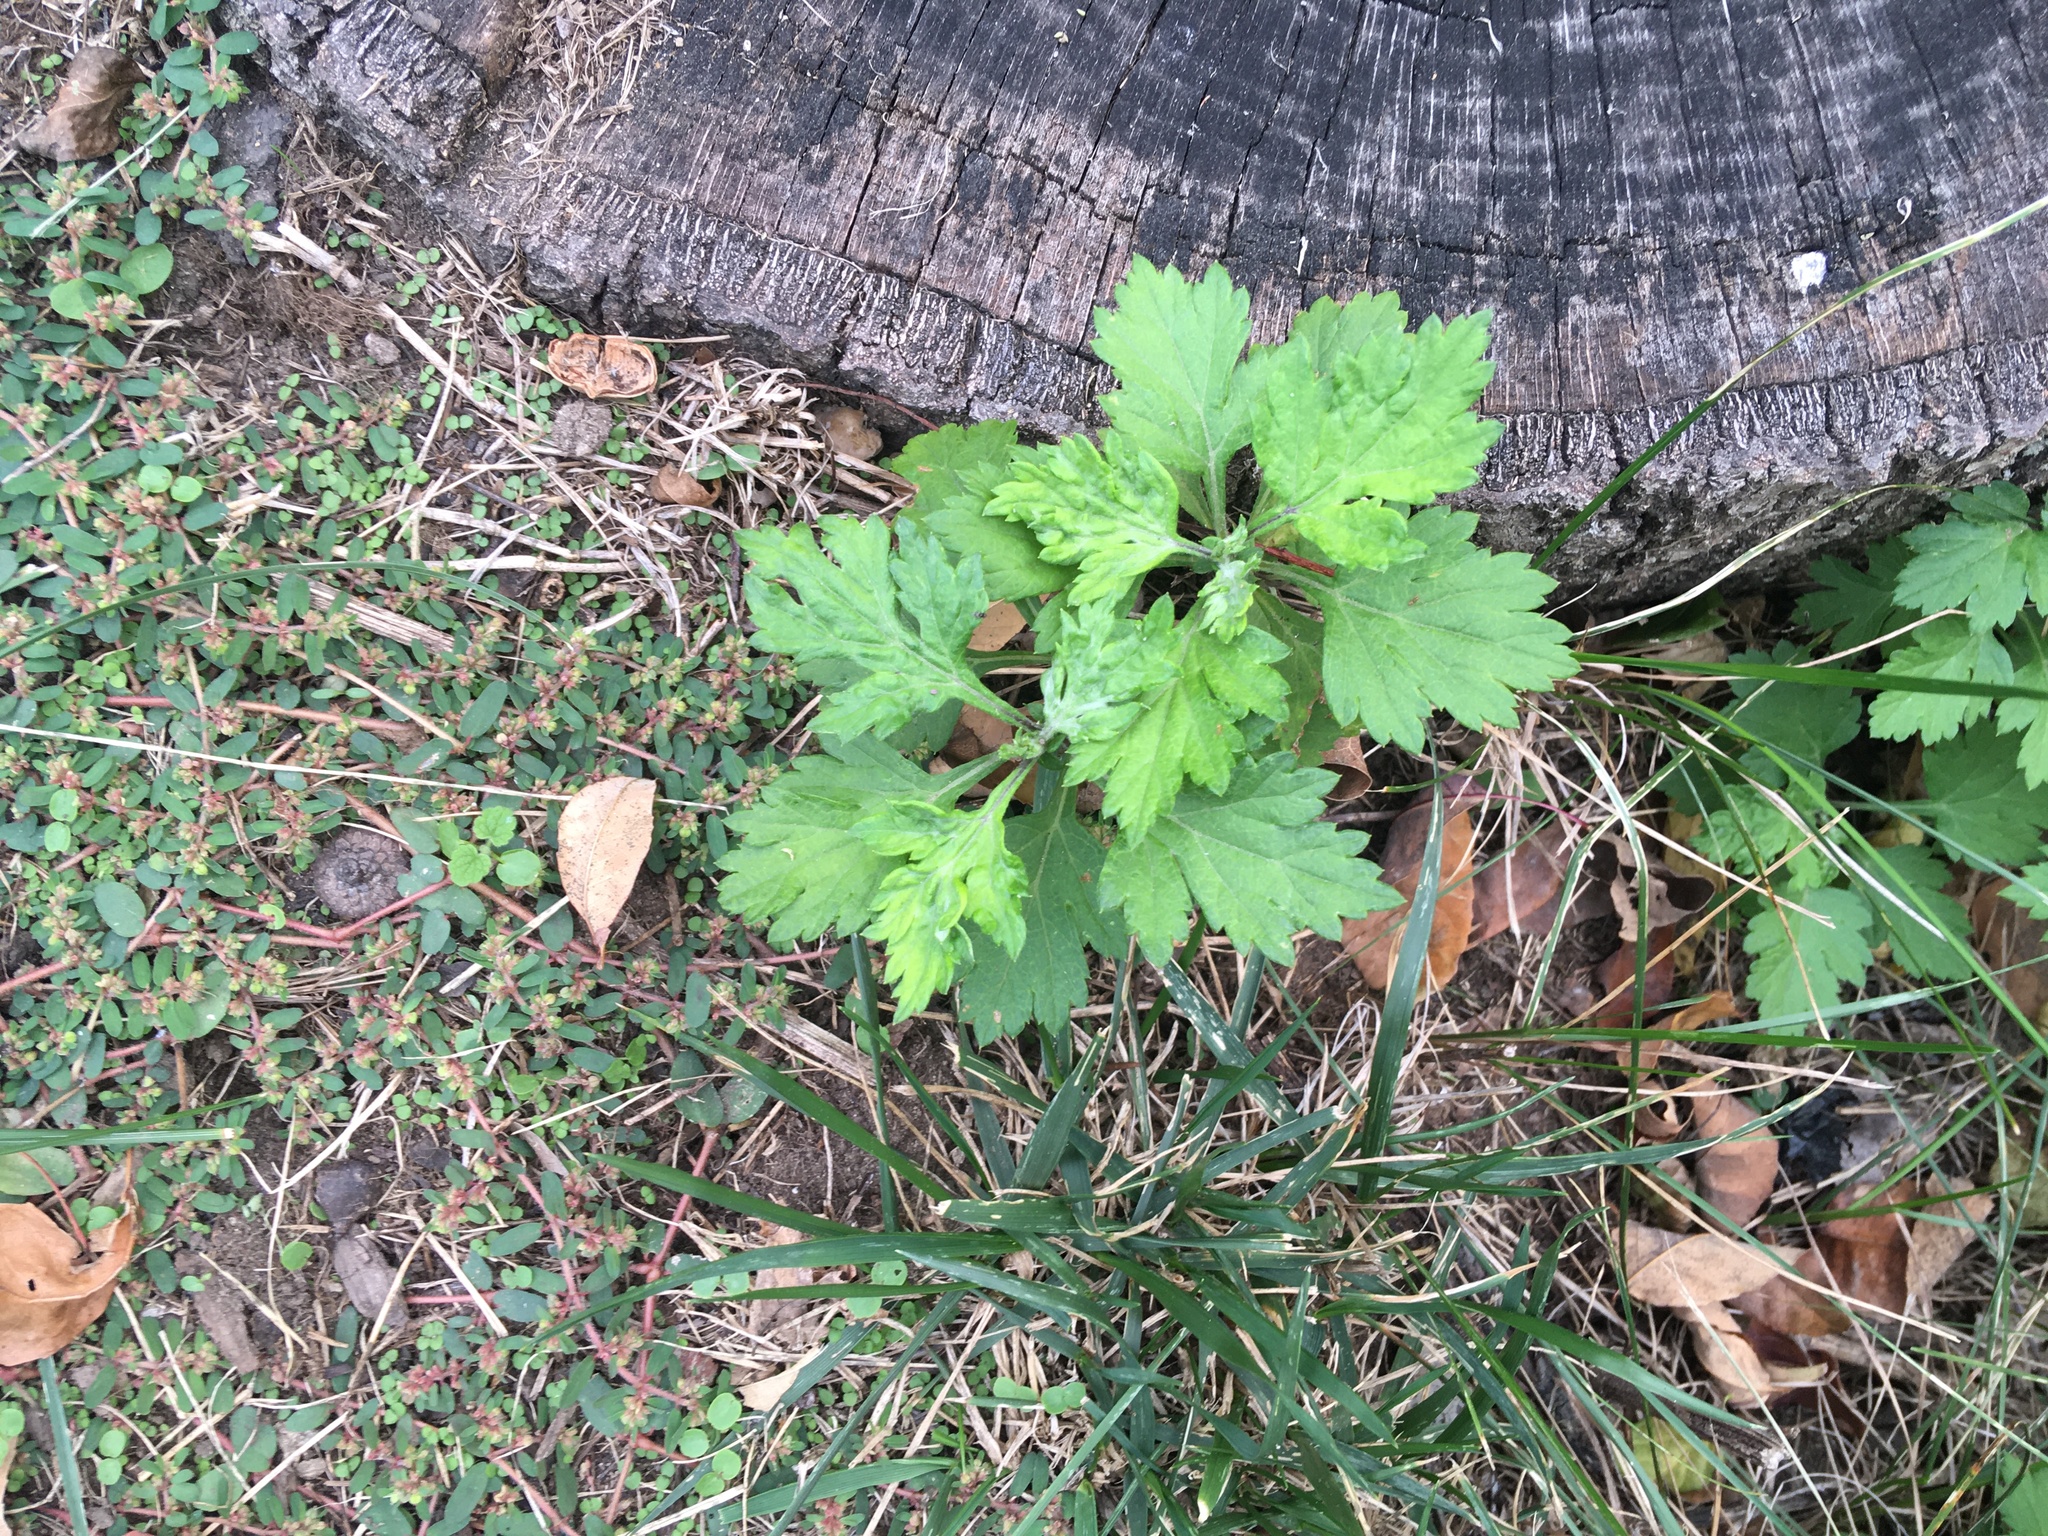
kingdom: Plantae
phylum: Tracheophyta
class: Magnoliopsida
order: Asterales
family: Asteraceae
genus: Artemisia
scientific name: Artemisia vulgaris
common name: Mugwort
